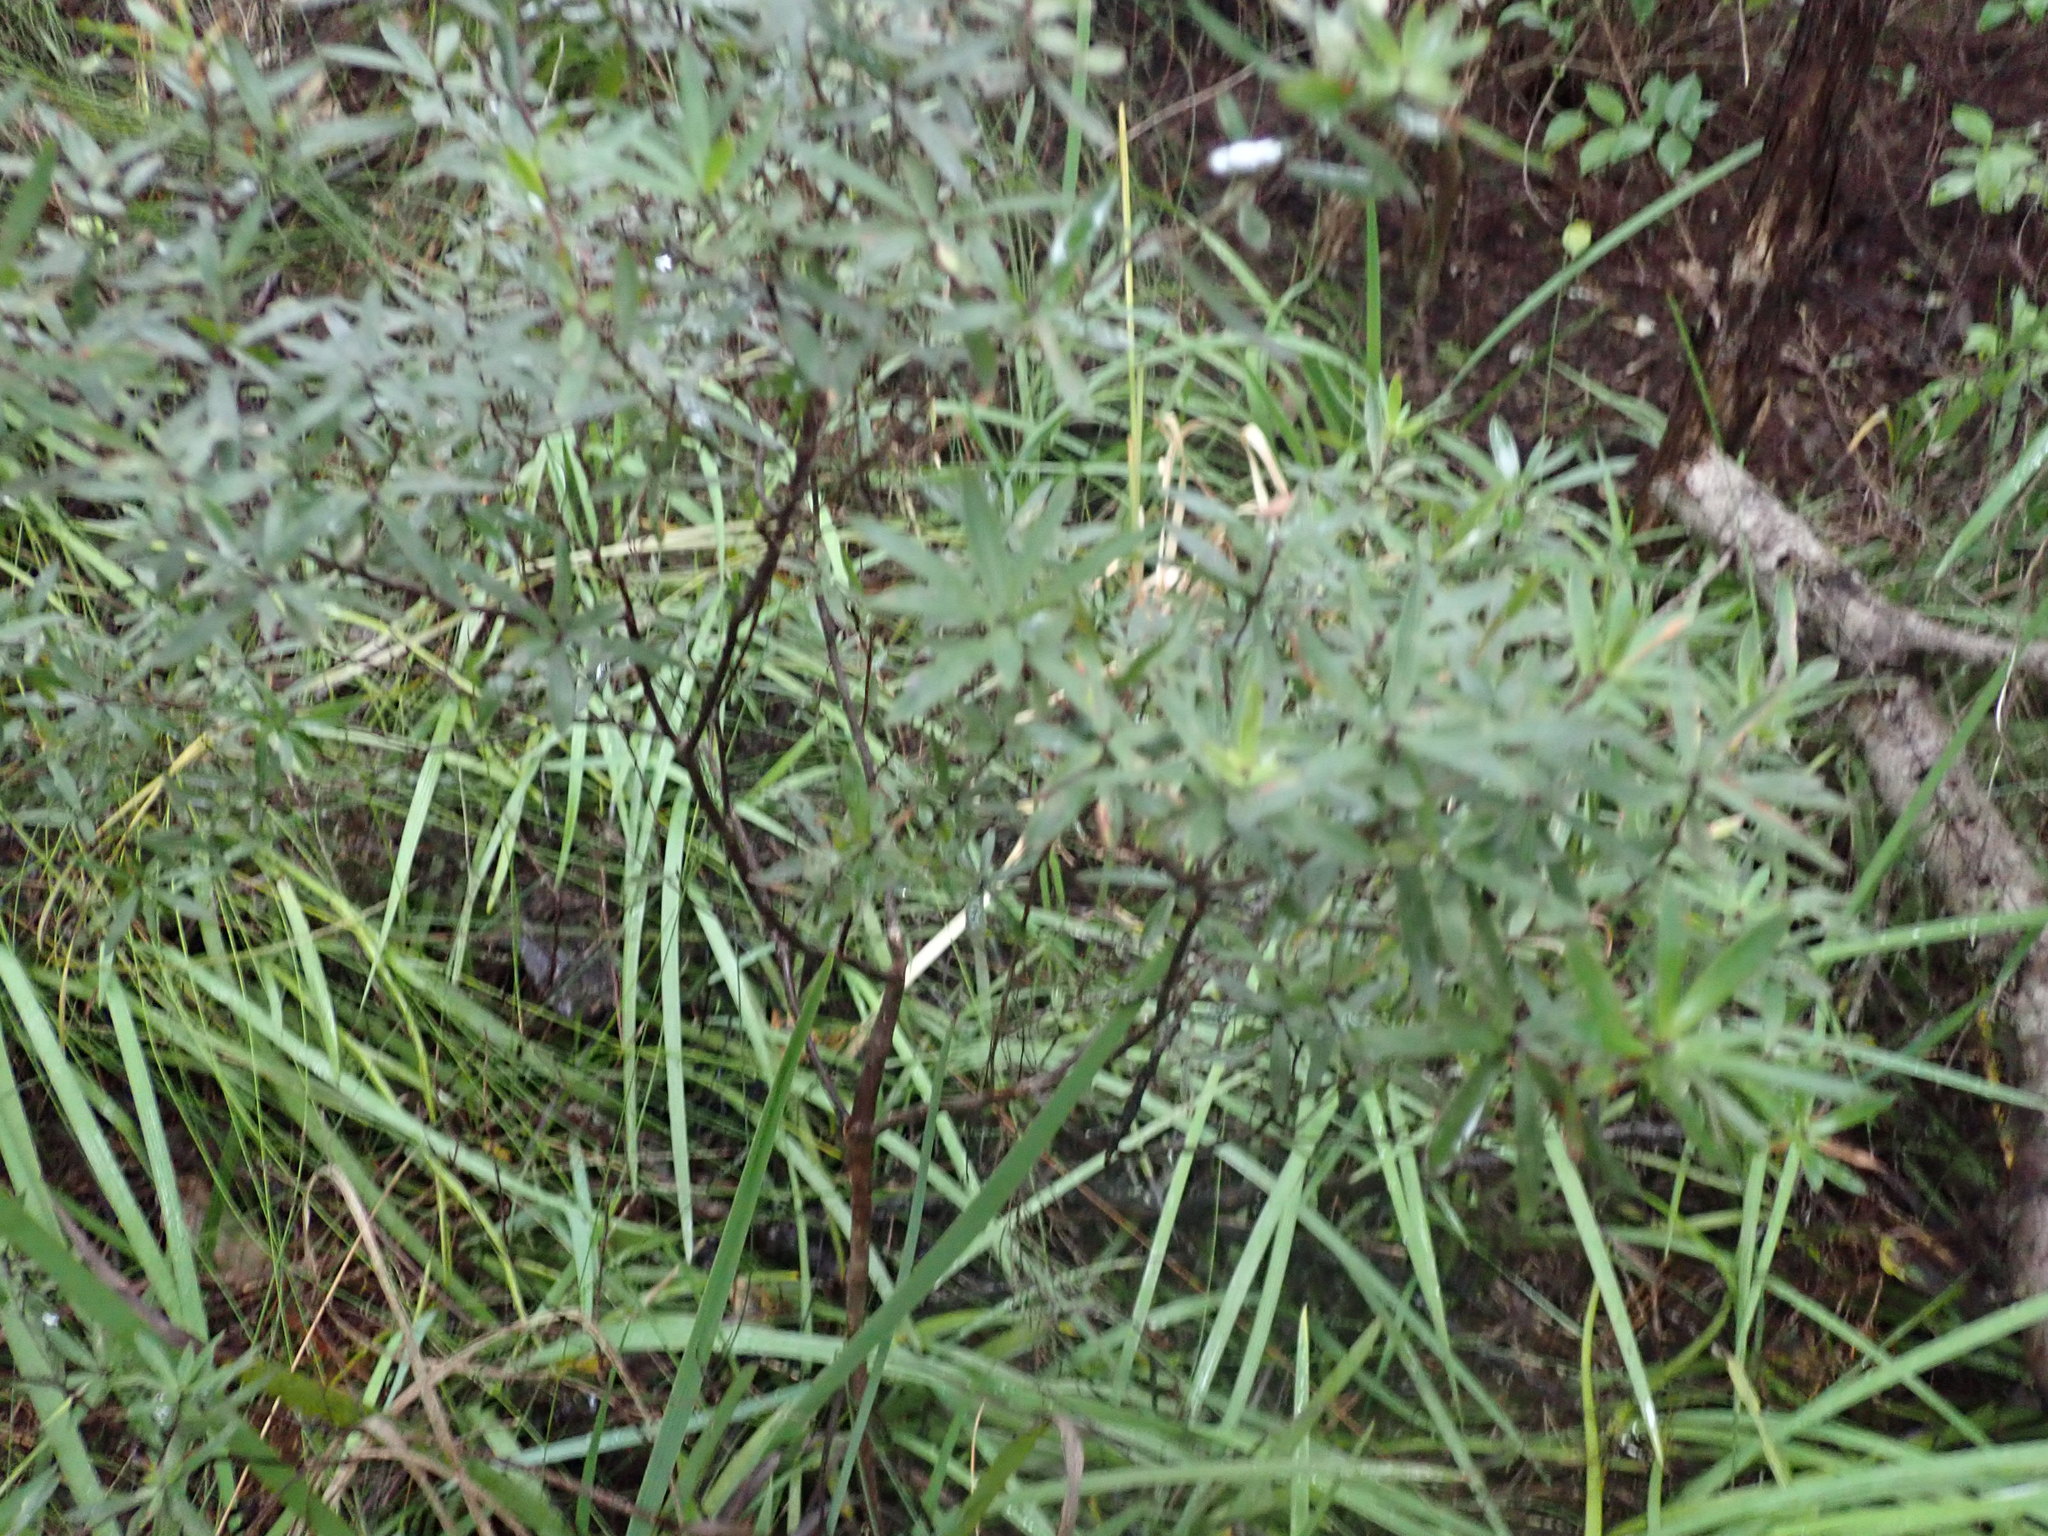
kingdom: Plantae
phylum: Tracheophyta
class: Magnoliopsida
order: Ericales
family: Ericaceae
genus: Leucopogon
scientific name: Leucopogon fasciculatus
